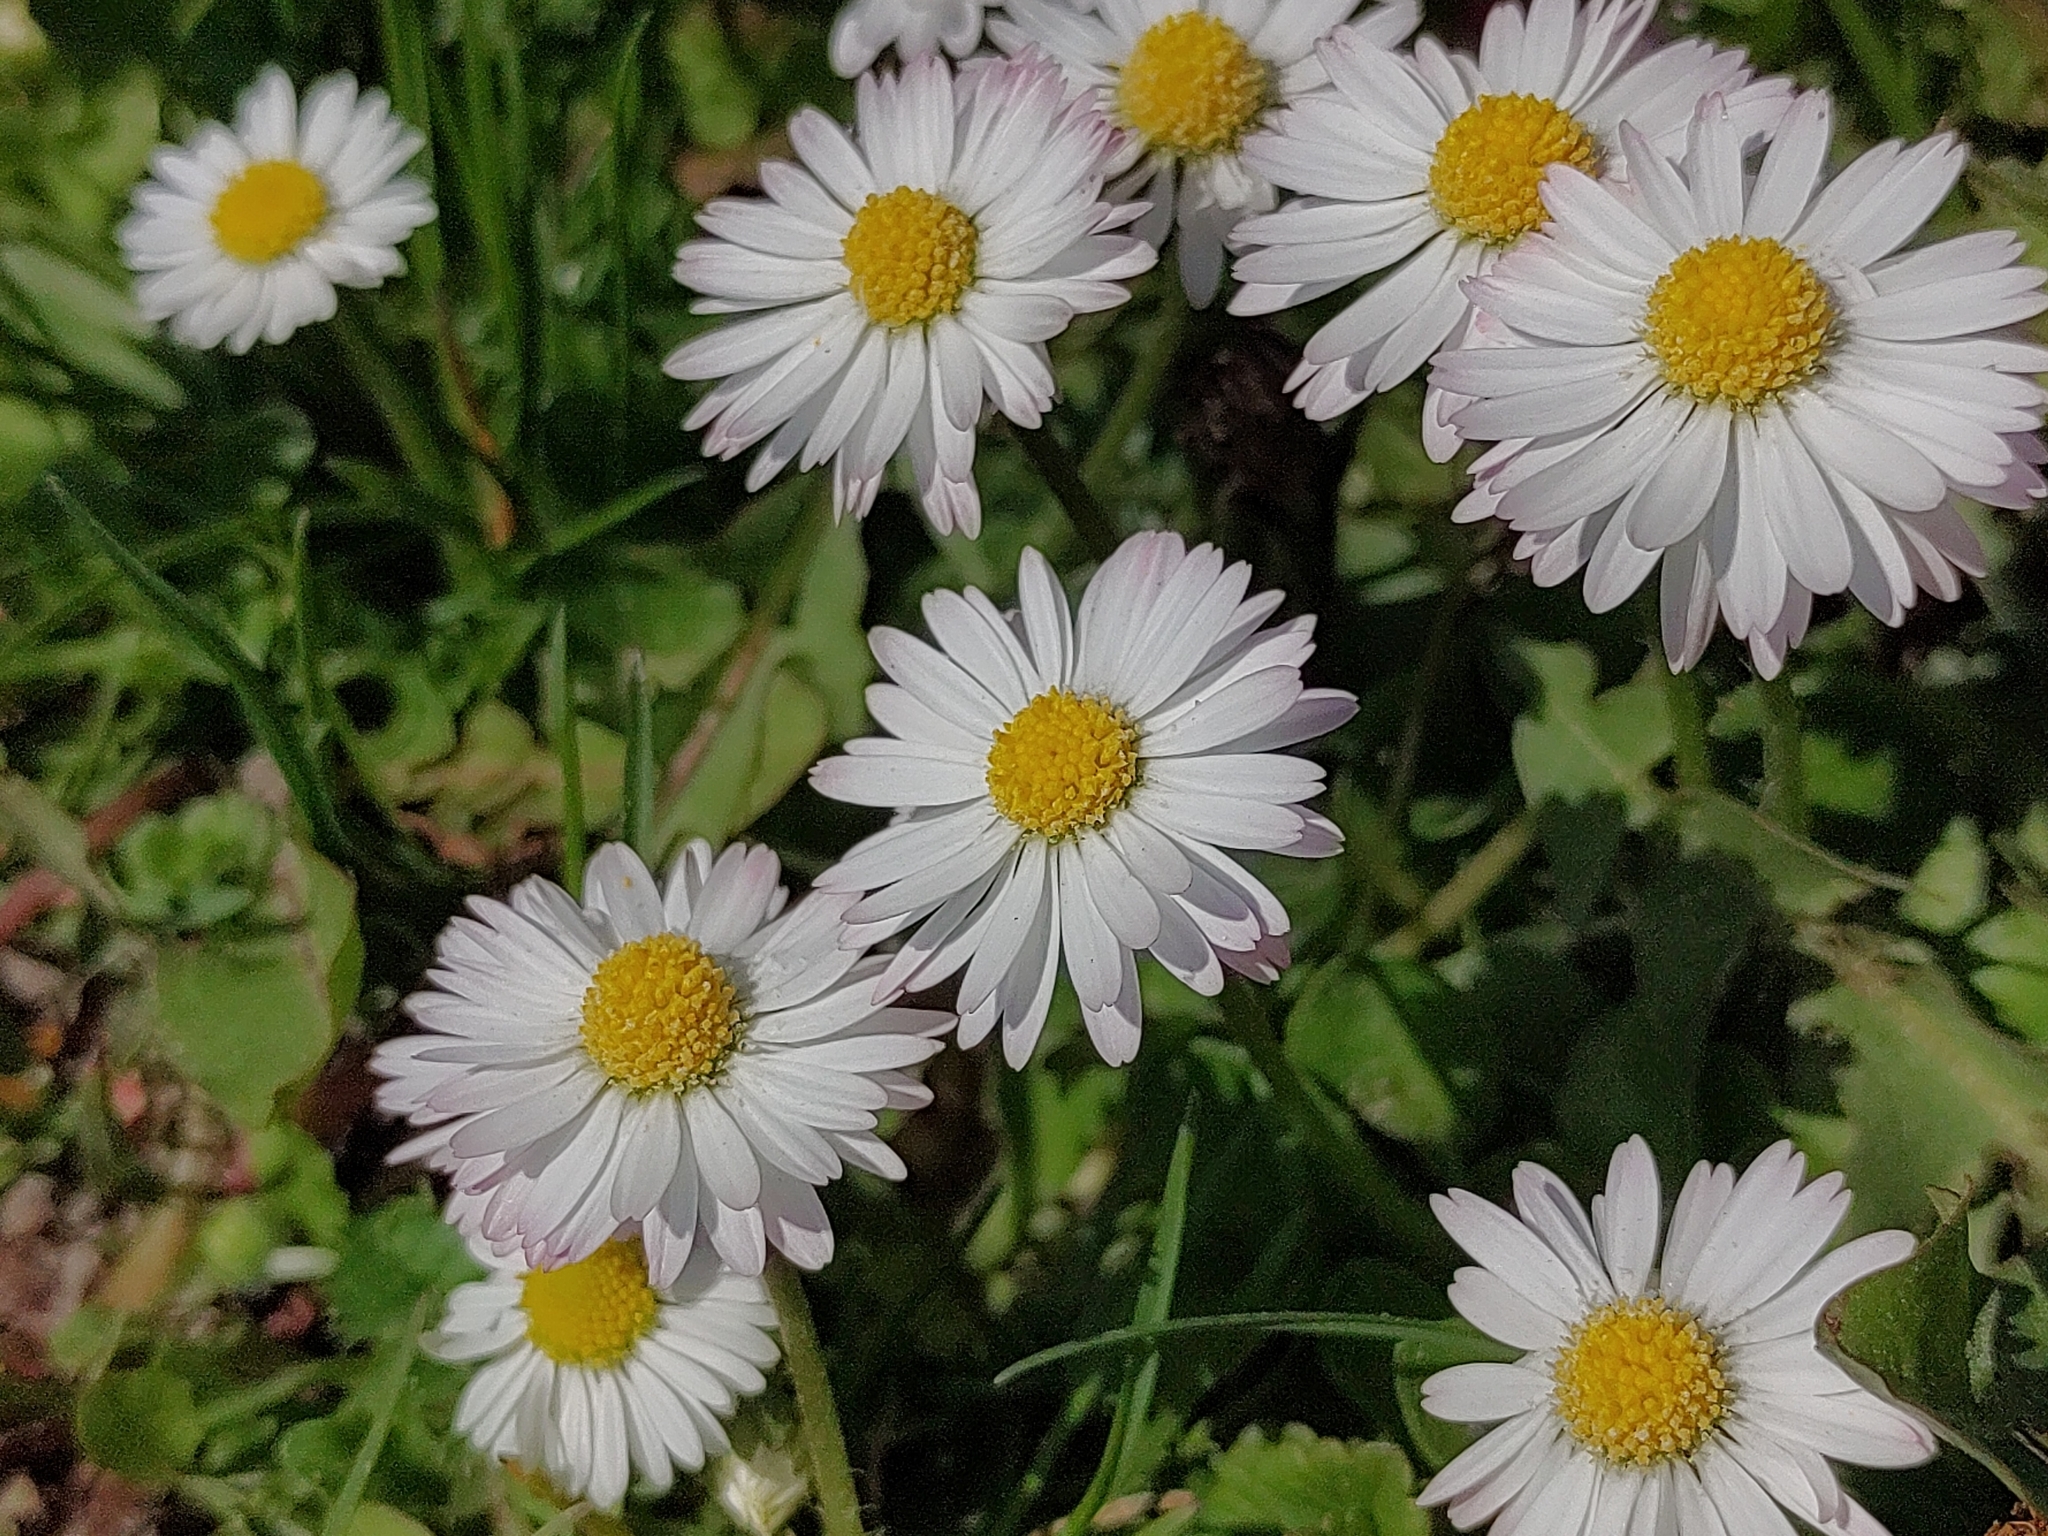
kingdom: Plantae
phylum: Tracheophyta
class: Magnoliopsida
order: Asterales
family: Asteraceae
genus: Bellis
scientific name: Bellis perennis
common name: Lawndaisy
